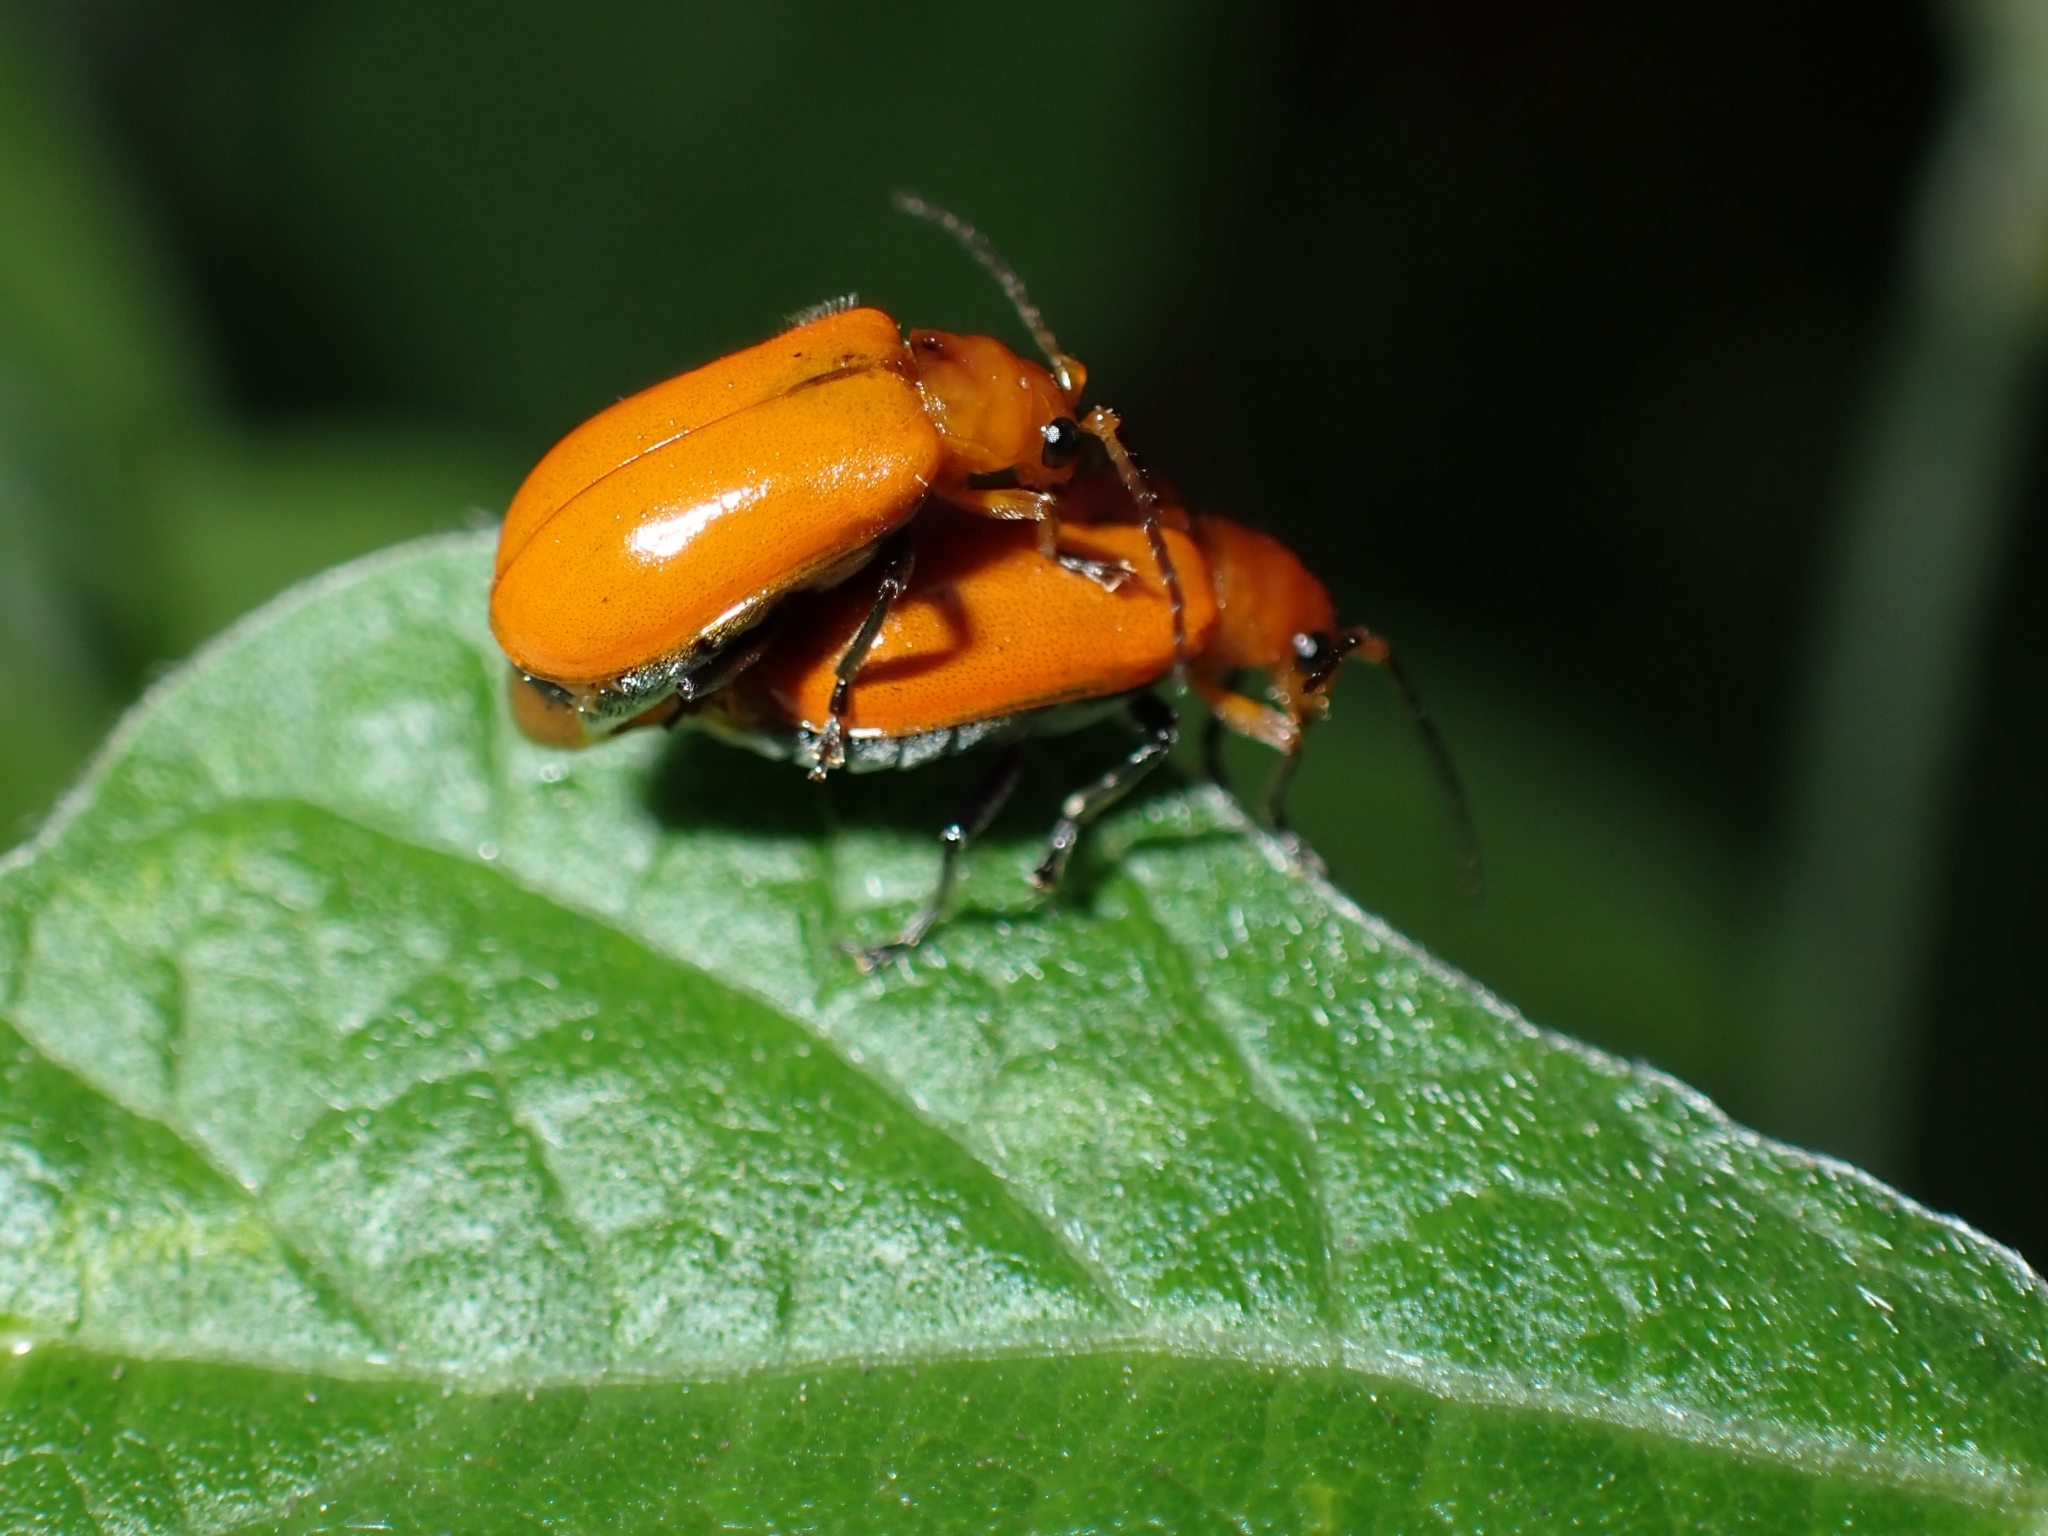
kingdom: Animalia
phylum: Arthropoda
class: Insecta
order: Coleoptera
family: Chrysomelidae
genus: Aulacophora
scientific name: Aulacophora indica
